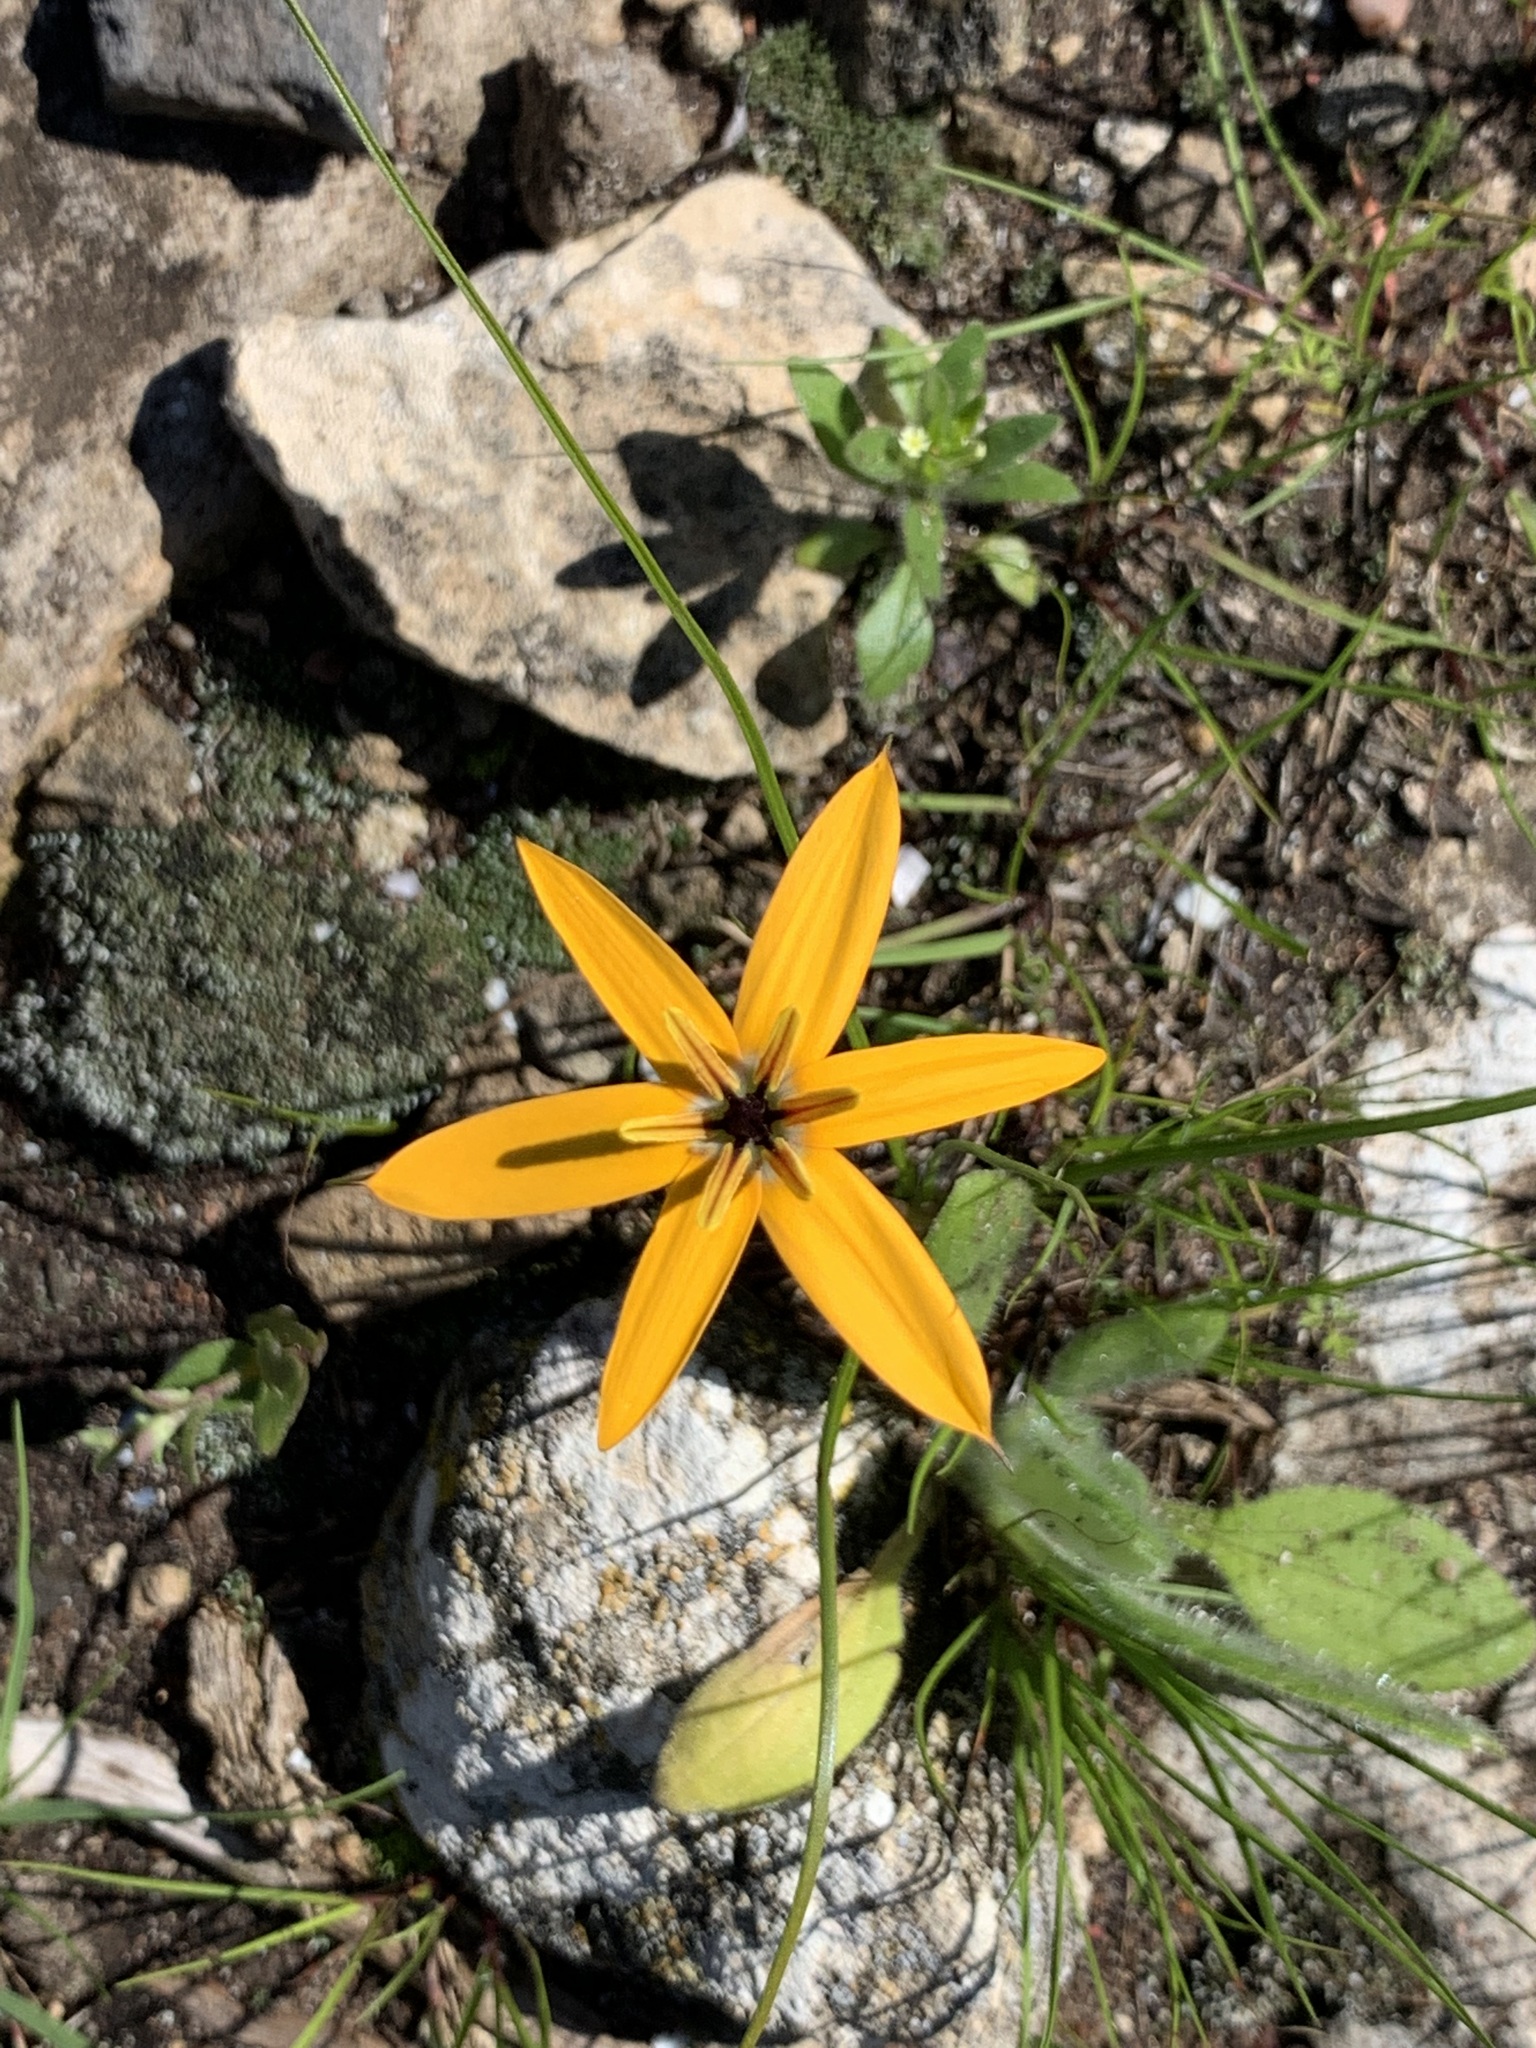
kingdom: Plantae
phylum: Tracheophyta
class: Liliopsida
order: Asparagales
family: Hypoxidaceae
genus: Pauridia
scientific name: Pauridia linearis
